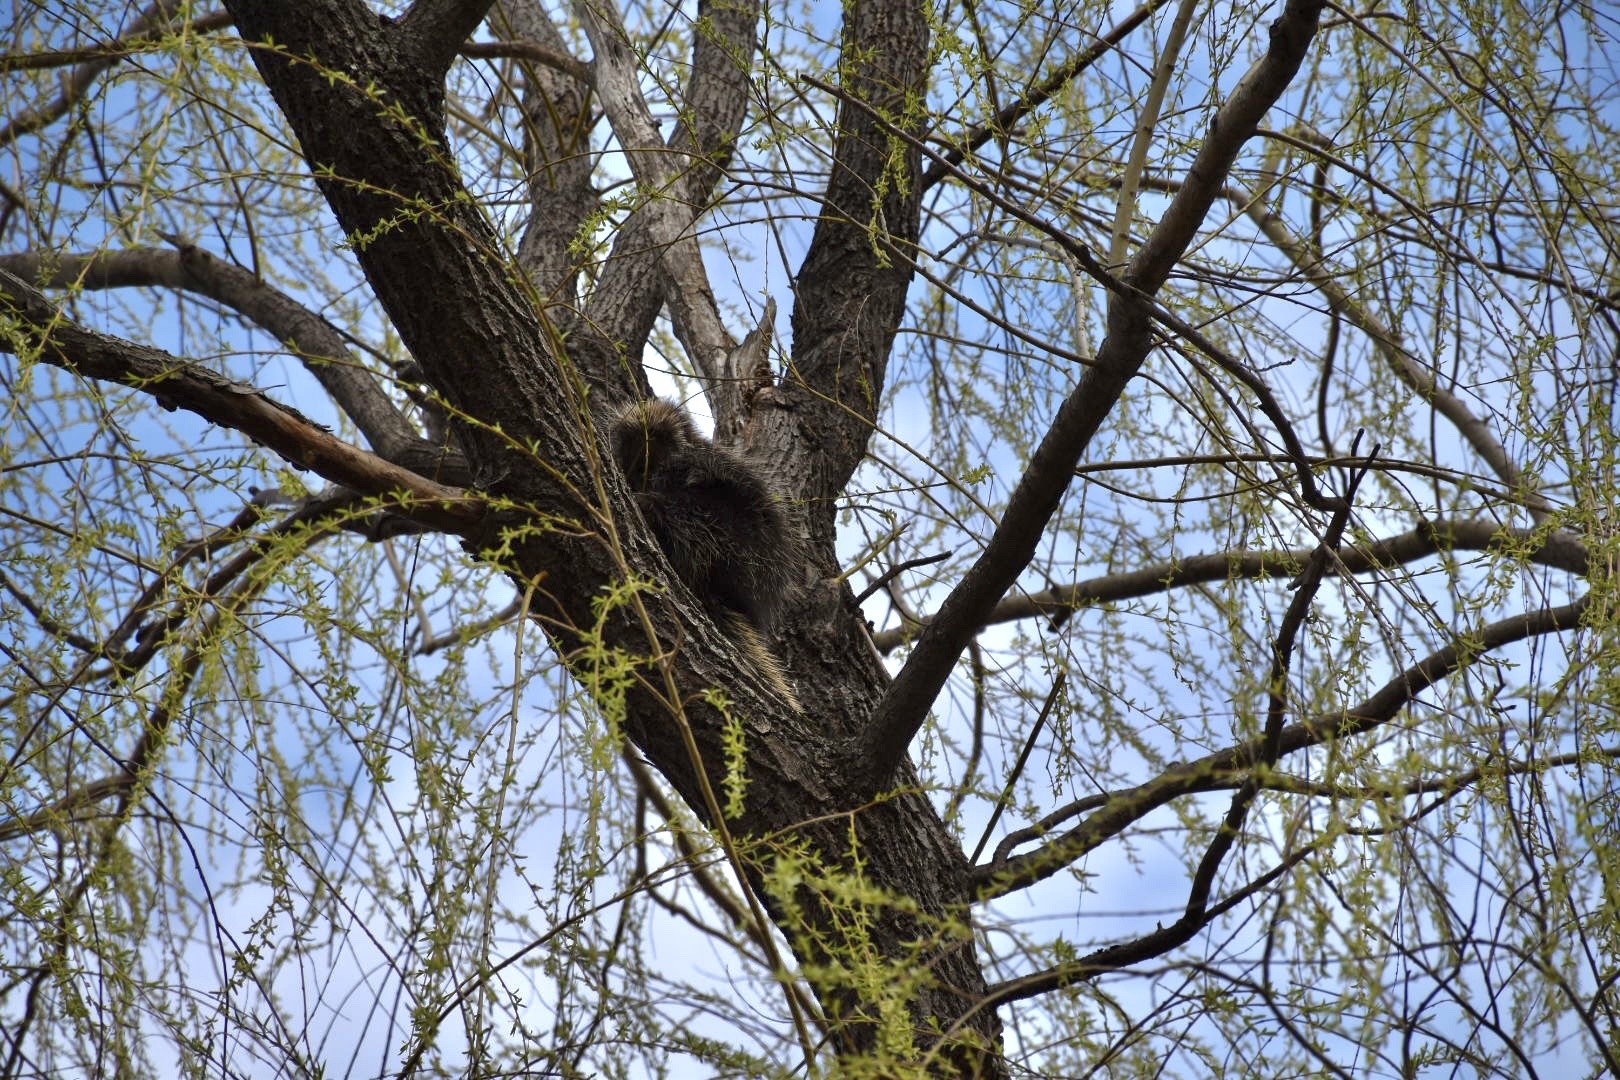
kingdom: Animalia
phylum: Chordata
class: Mammalia
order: Rodentia
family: Erethizontidae
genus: Erethizon
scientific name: Erethizon dorsatus
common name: North american porcupine
